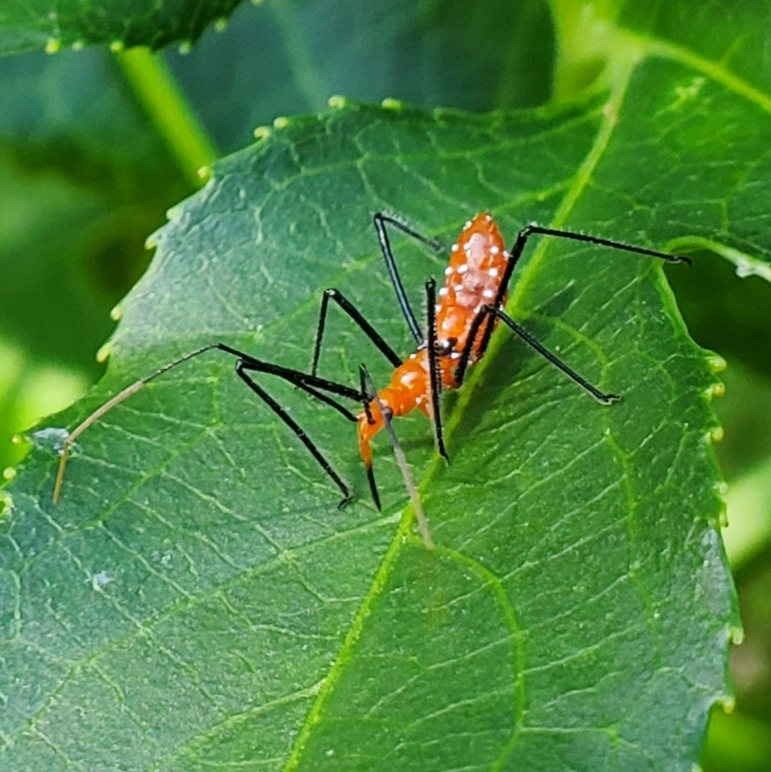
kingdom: Animalia
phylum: Arthropoda
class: Insecta
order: Hemiptera
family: Reduviidae
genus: Zelus
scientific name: Zelus longipes
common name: Milkweed assassin bug
